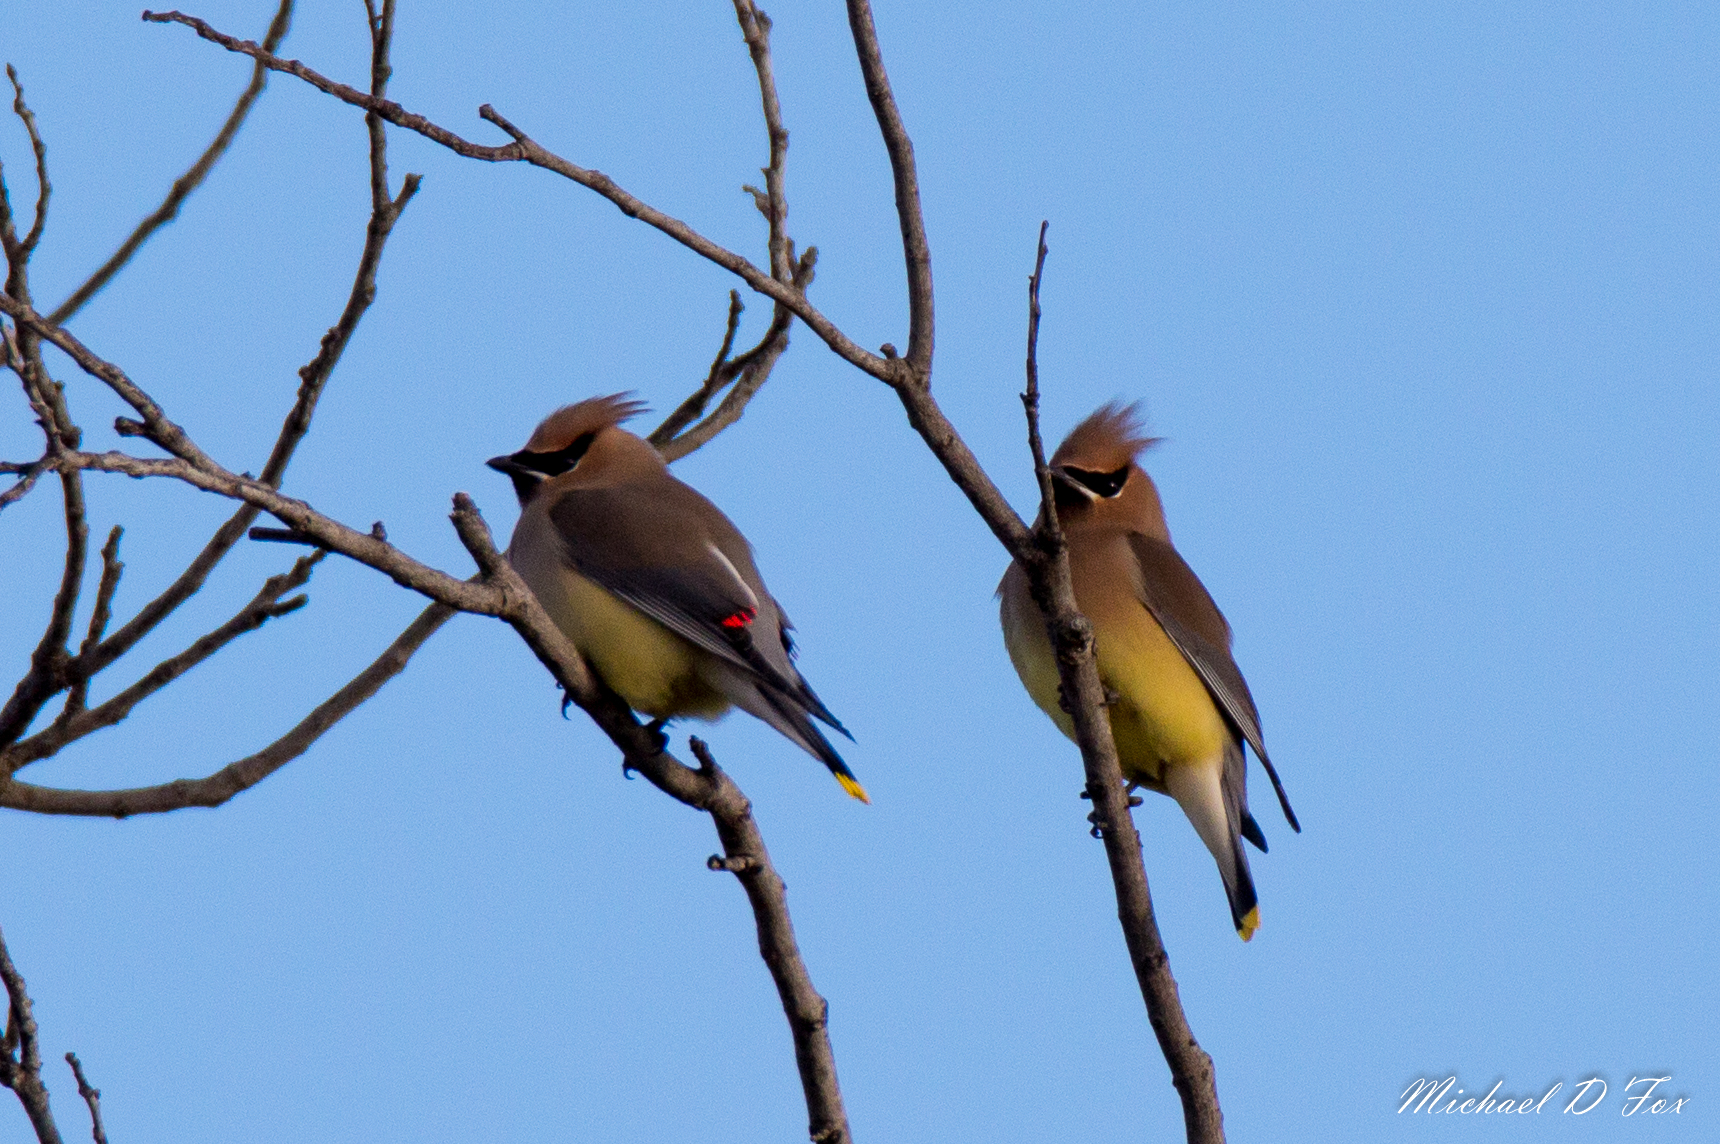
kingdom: Animalia
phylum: Chordata
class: Aves
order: Passeriformes
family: Bombycillidae
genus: Bombycilla
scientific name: Bombycilla cedrorum
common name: Cedar waxwing
